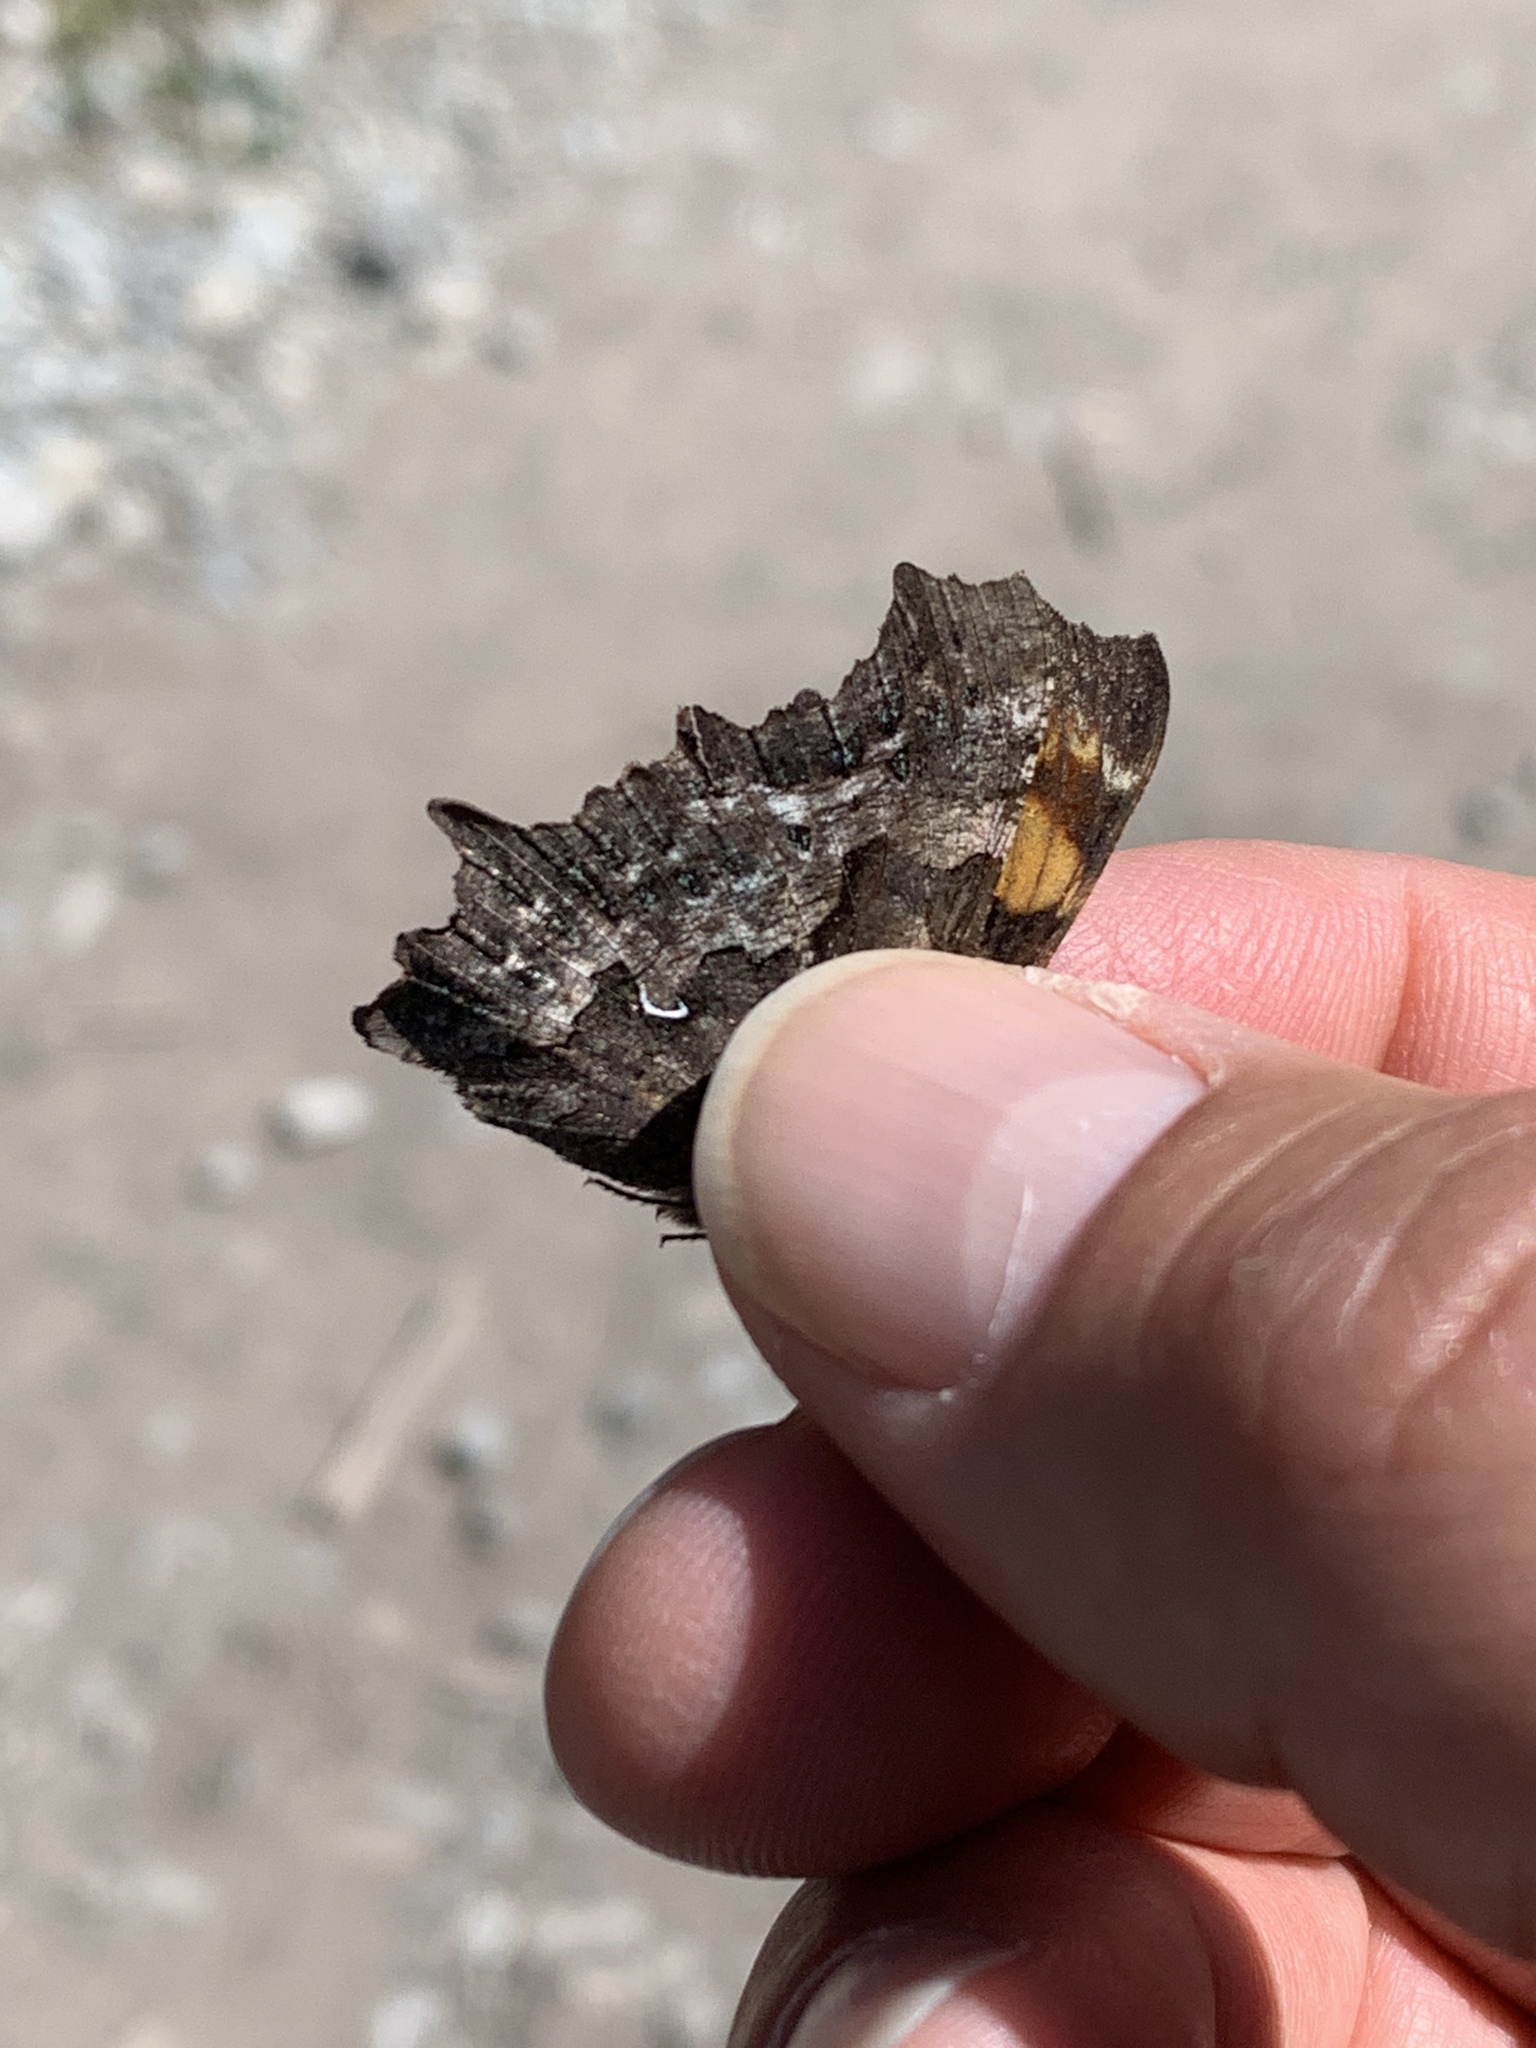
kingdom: Animalia
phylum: Arthropoda
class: Insecta
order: Lepidoptera
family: Nymphalidae
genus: Polygonia
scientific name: Polygonia faunus
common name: Green comma
